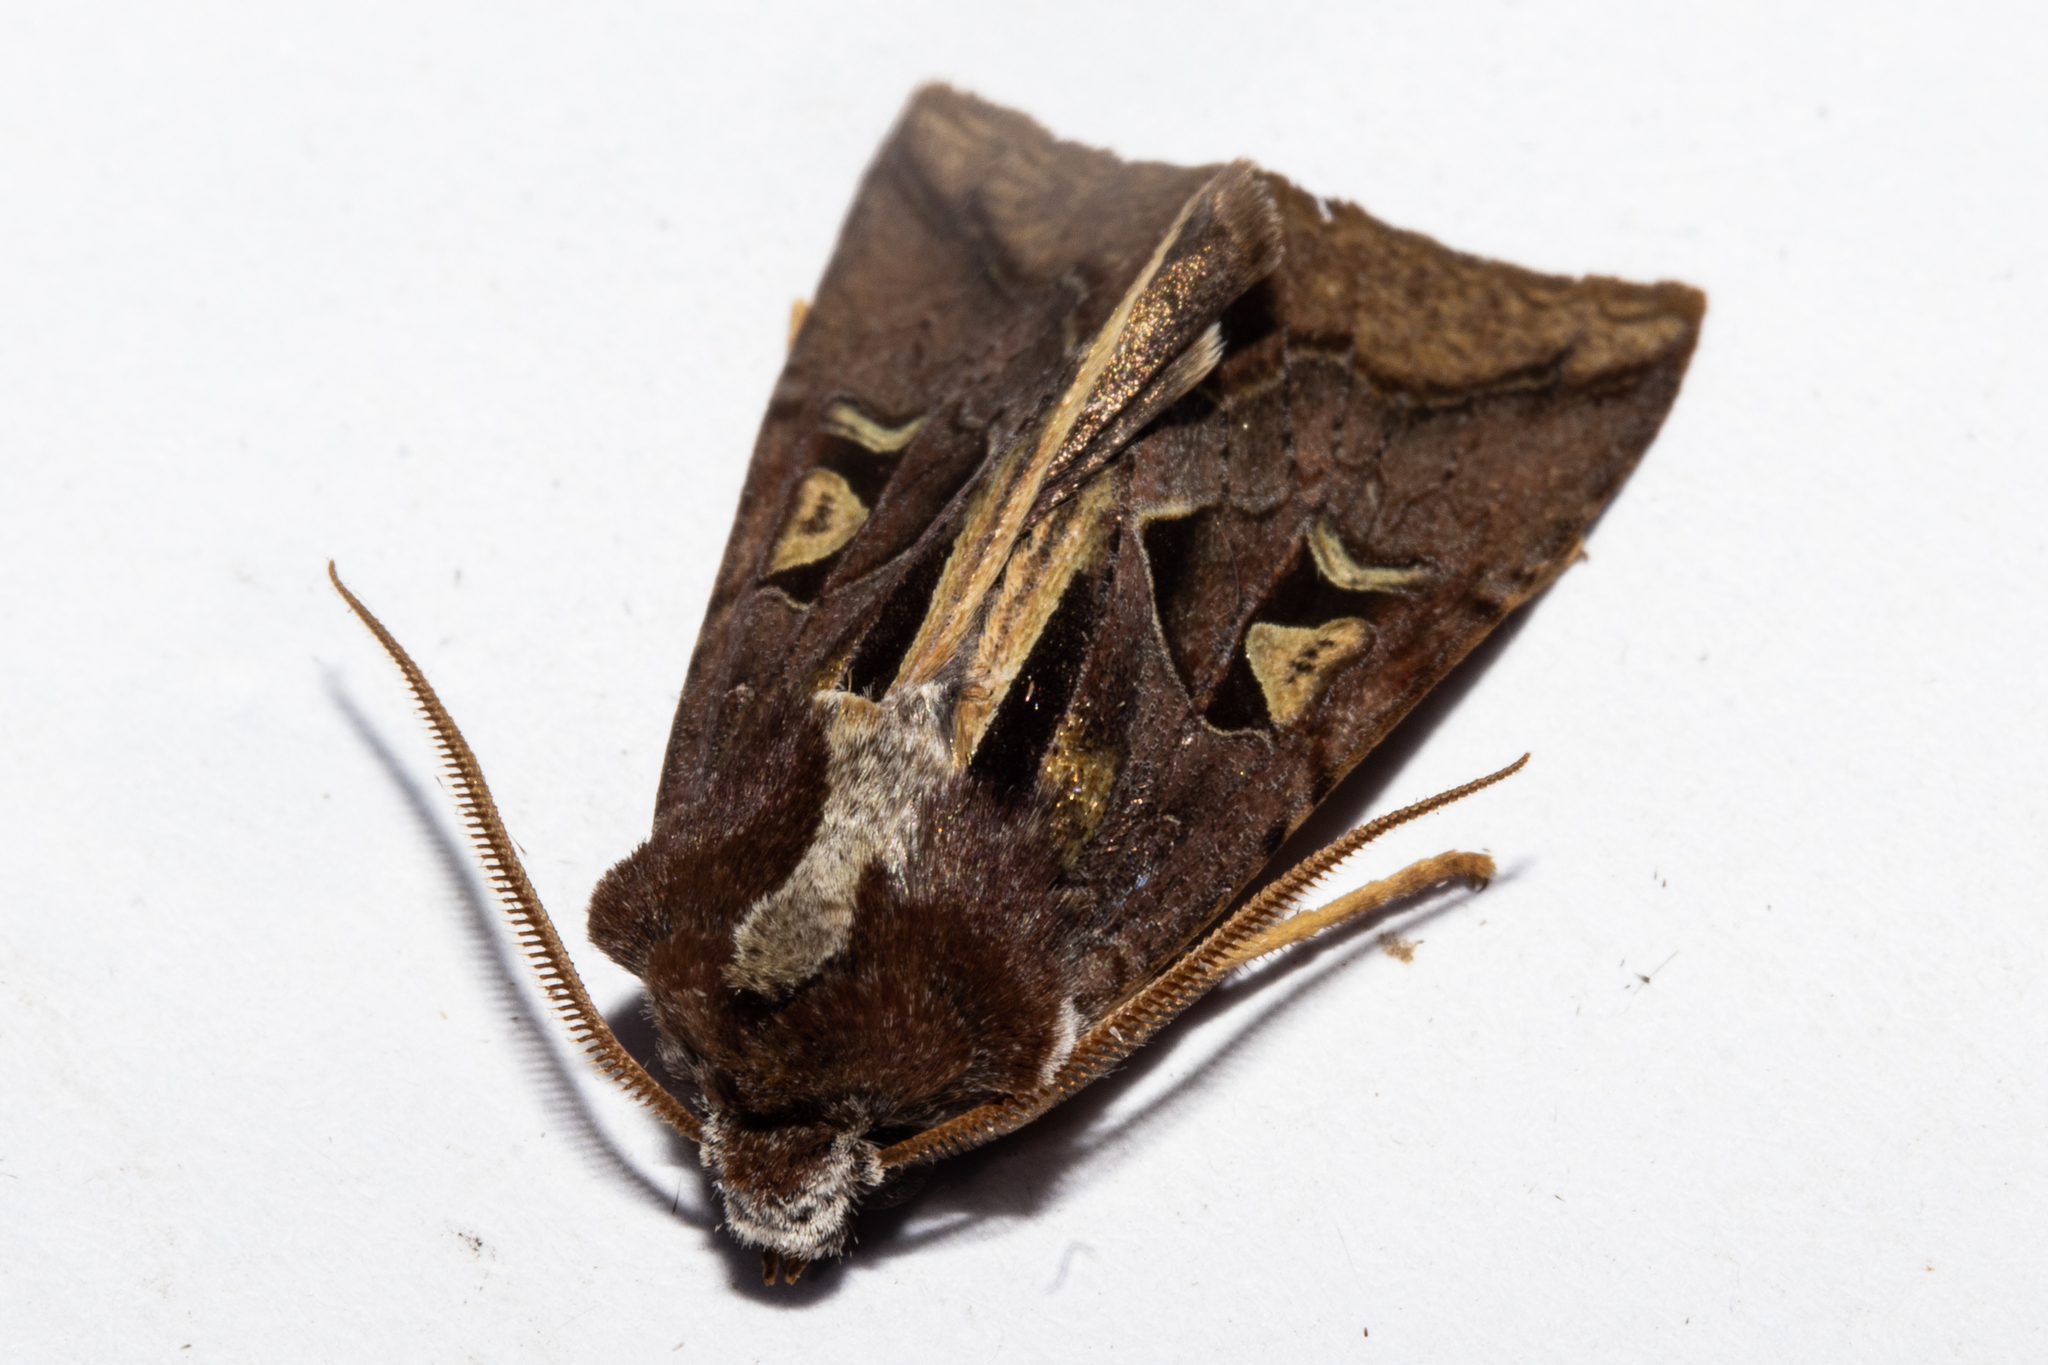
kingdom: Animalia
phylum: Arthropoda
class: Insecta
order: Lepidoptera
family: Noctuidae
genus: Meterana
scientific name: Meterana grandiosa
